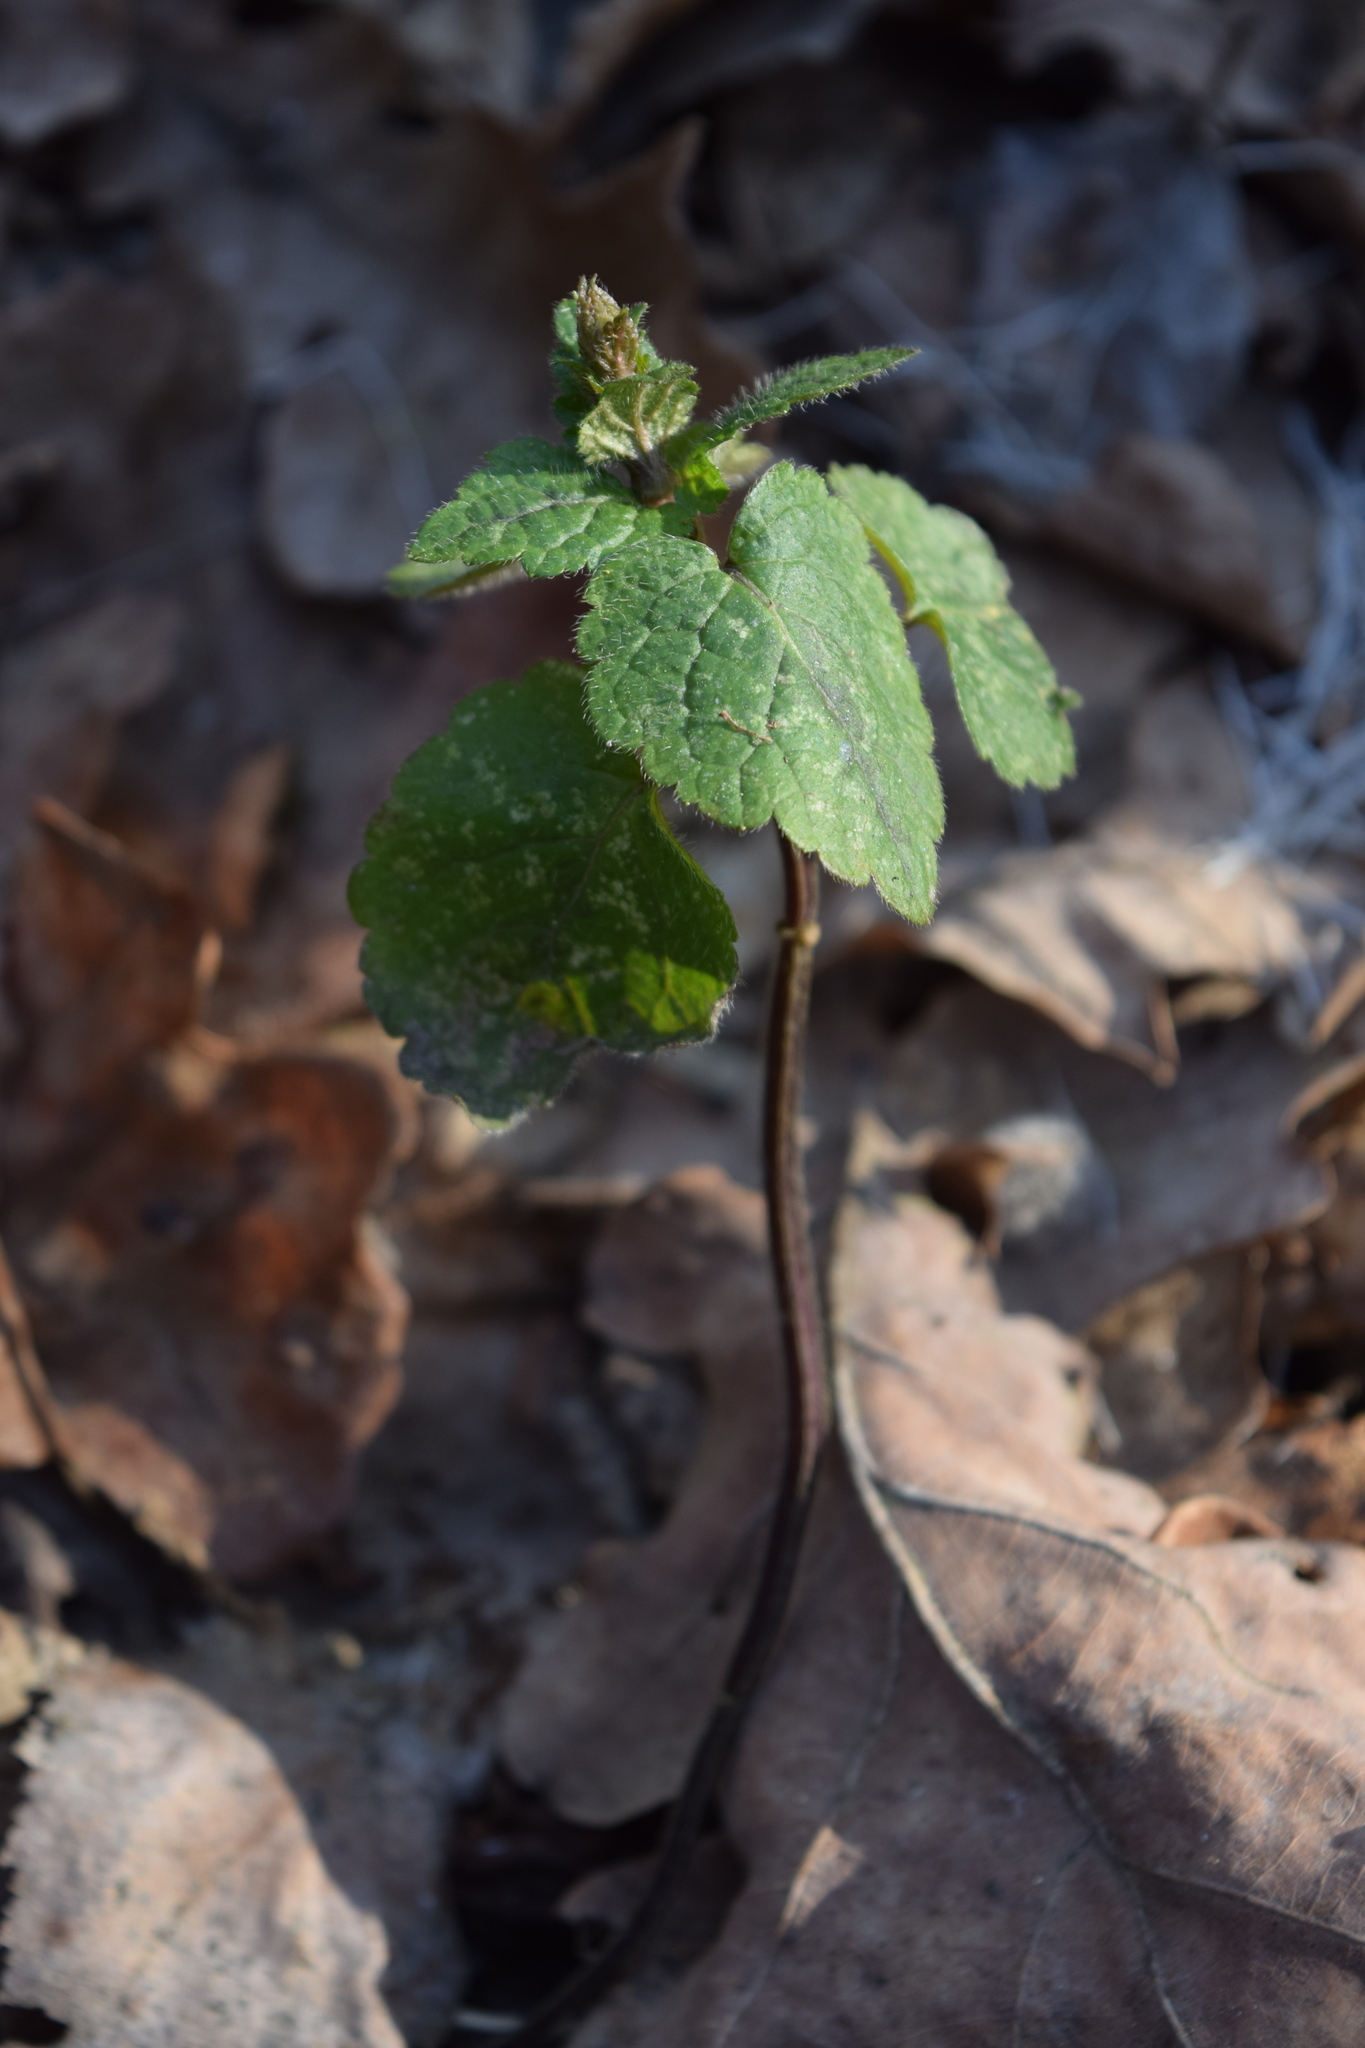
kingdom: Plantae
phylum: Tracheophyta
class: Magnoliopsida
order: Lamiales
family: Lamiaceae
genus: Lamium
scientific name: Lamium galeobdolon
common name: Yellow archangel
